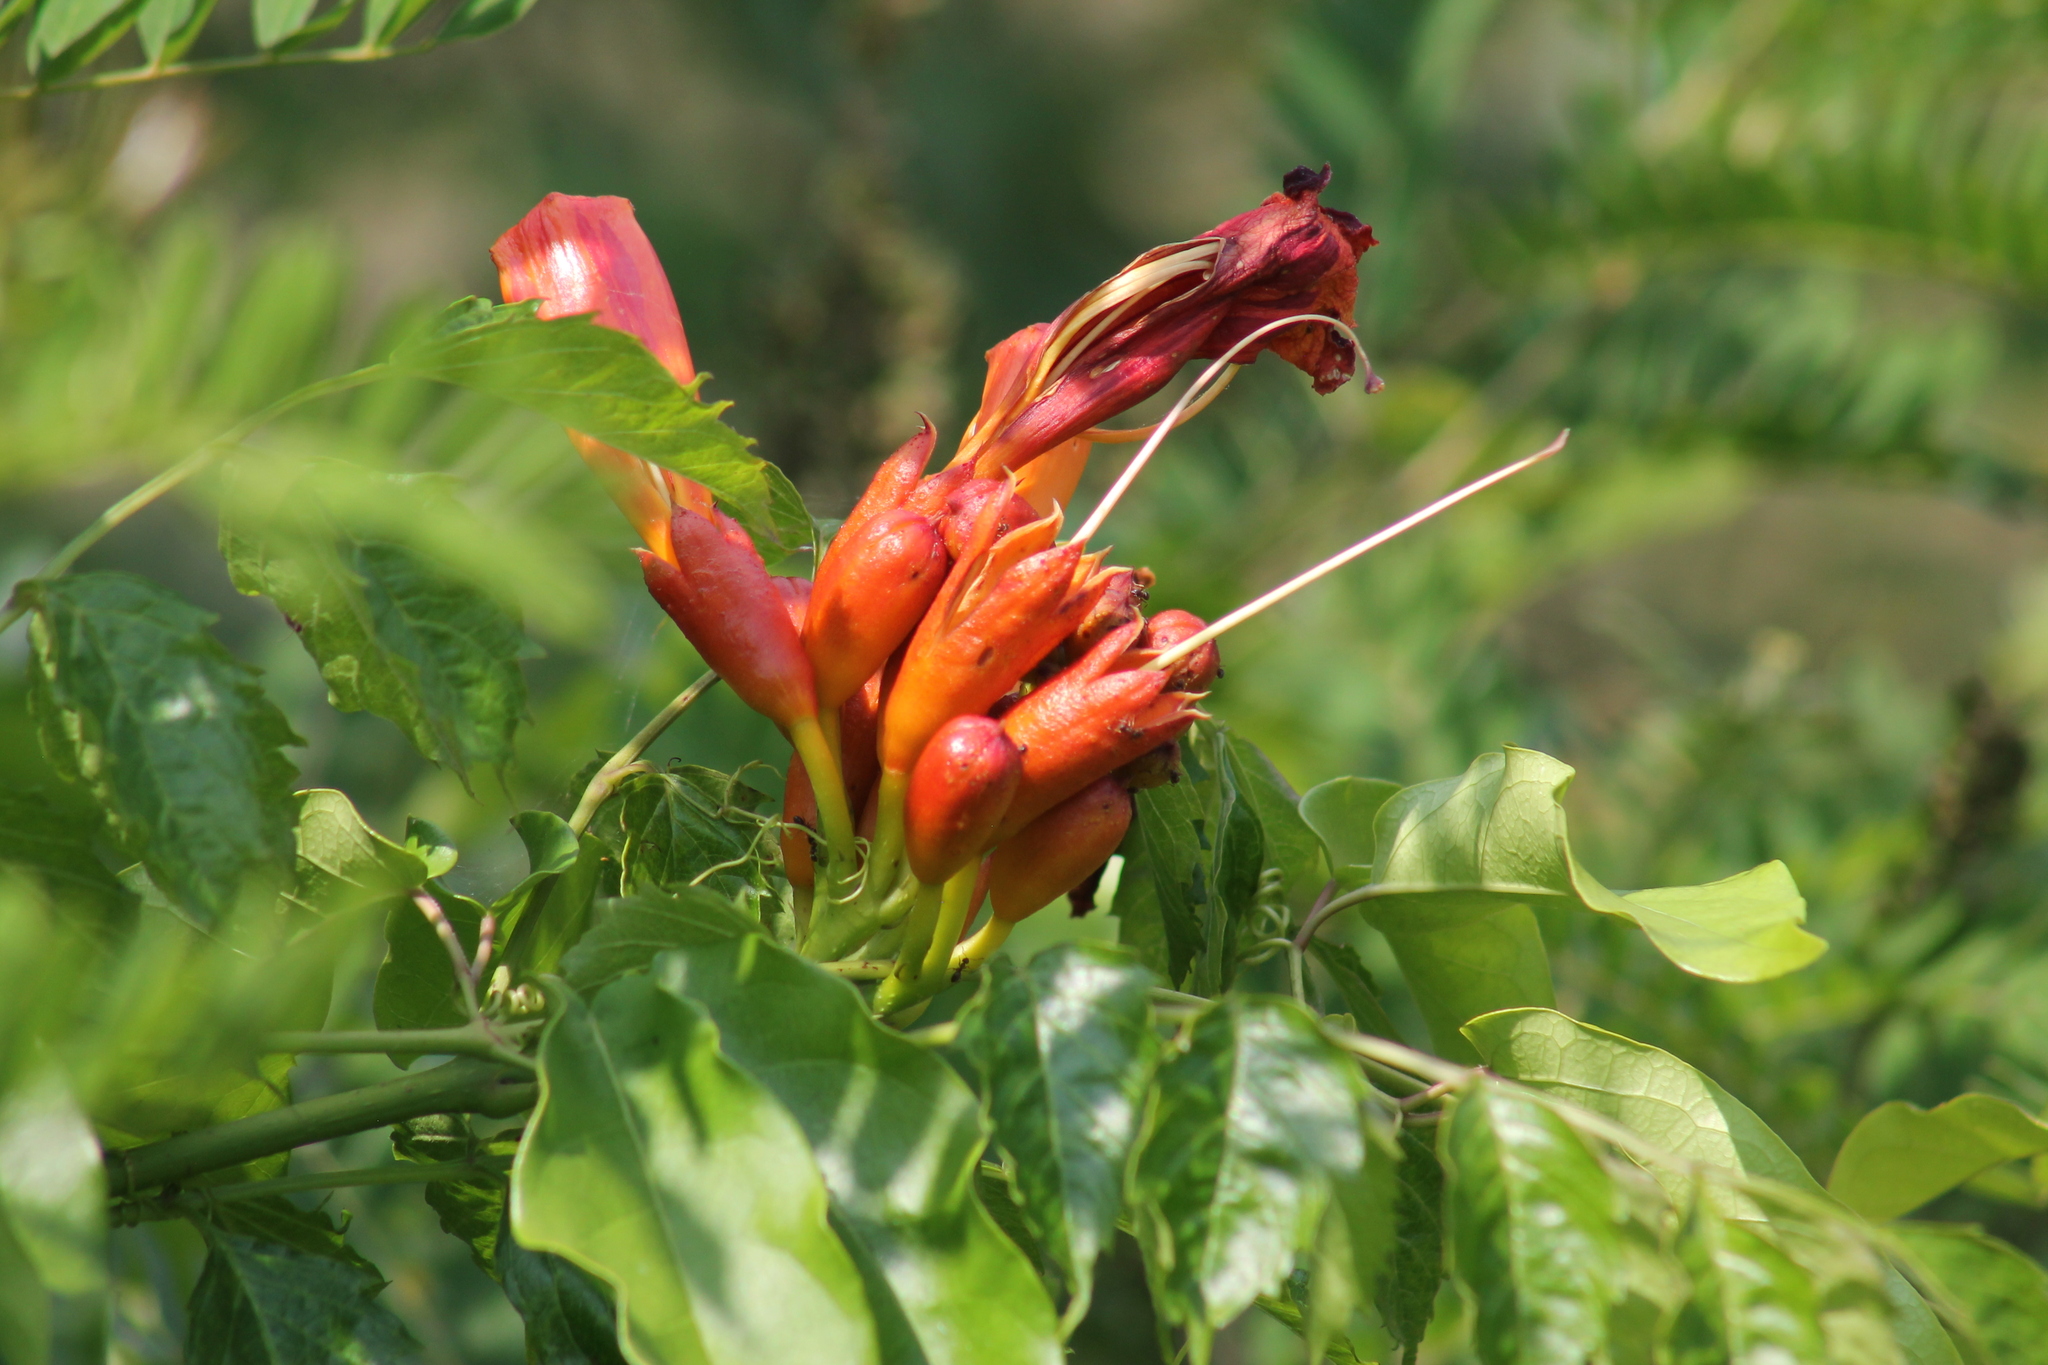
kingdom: Plantae
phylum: Tracheophyta
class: Magnoliopsida
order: Lamiales
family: Bignoniaceae
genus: Campsis
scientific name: Campsis radicans
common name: Trumpet-creeper
